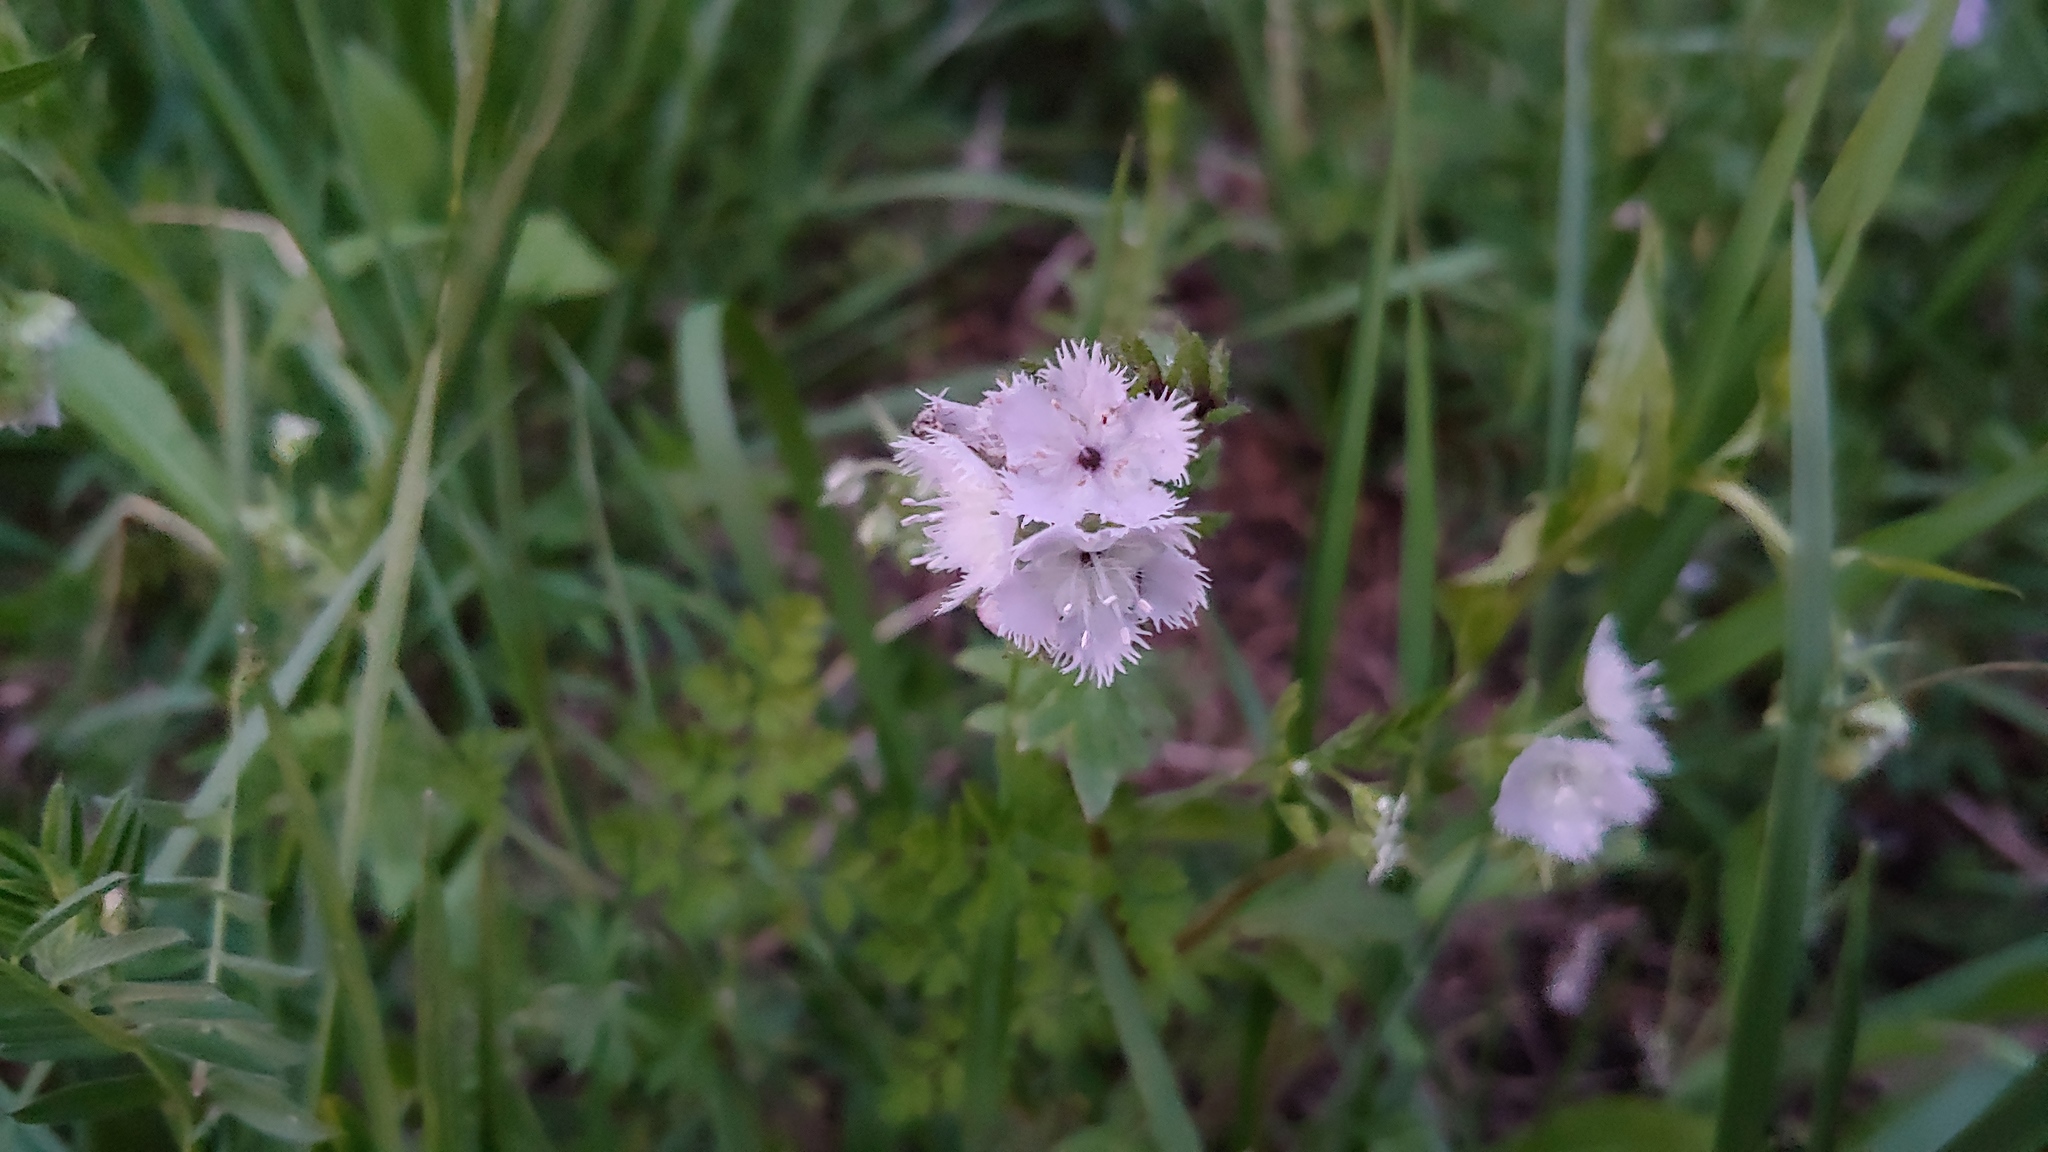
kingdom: Plantae
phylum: Tracheophyta
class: Magnoliopsida
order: Boraginales
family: Hydrophyllaceae
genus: Phacelia
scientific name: Phacelia purshii
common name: Miami-mist
